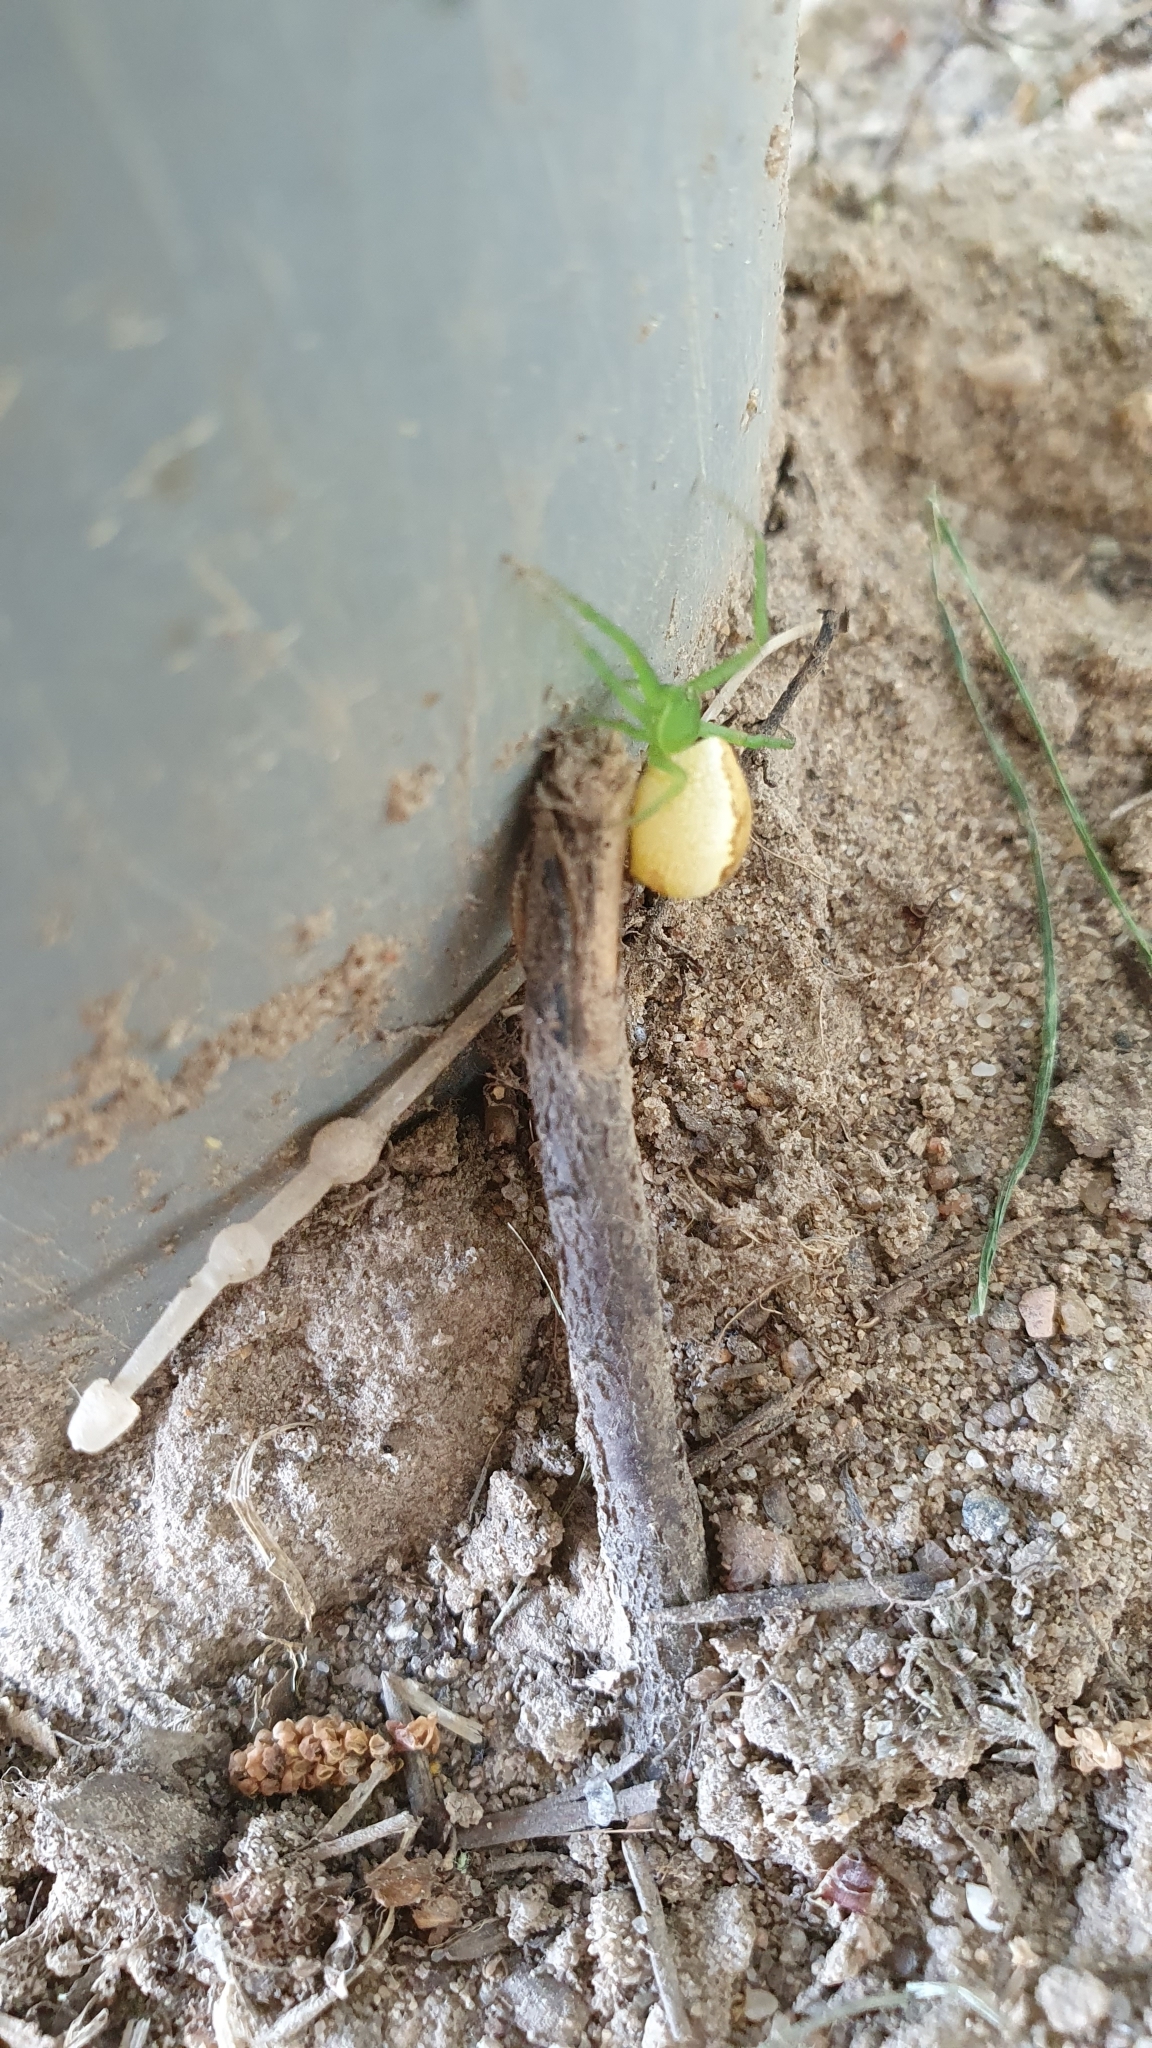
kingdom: Animalia
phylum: Arthropoda
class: Arachnida
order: Araneae
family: Thomisidae
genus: Diaea
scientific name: Diaea dorsata
